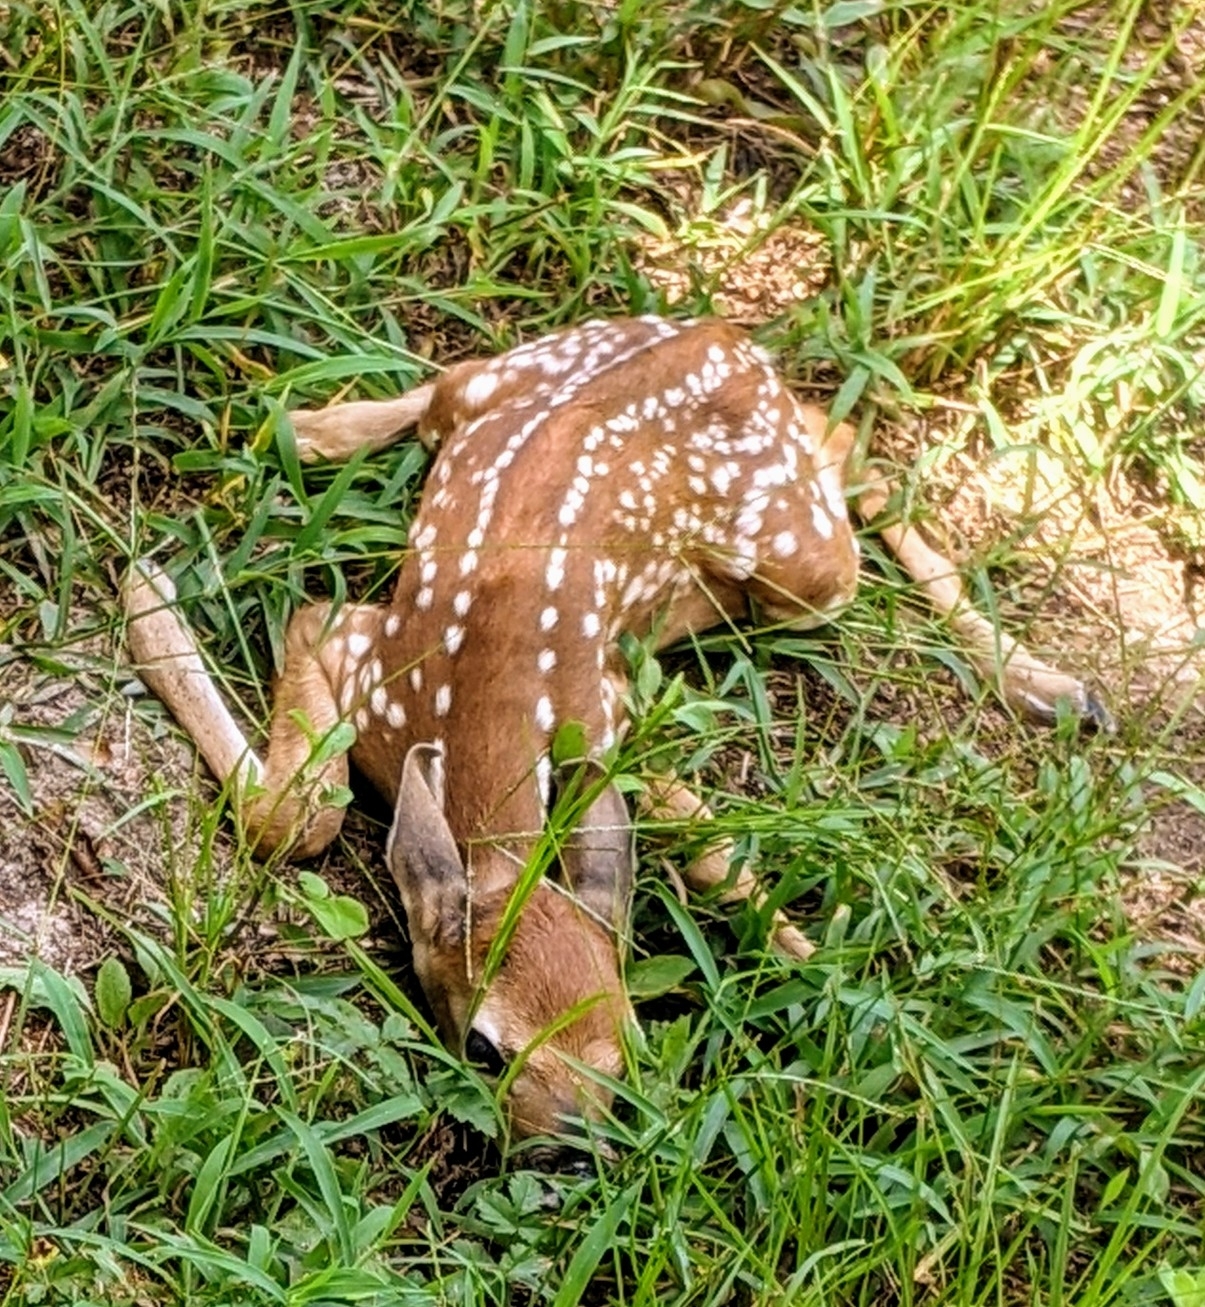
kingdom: Animalia
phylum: Chordata
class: Mammalia
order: Artiodactyla
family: Cervidae
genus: Odocoileus
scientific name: Odocoileus virginianus
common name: White-tailed deer
